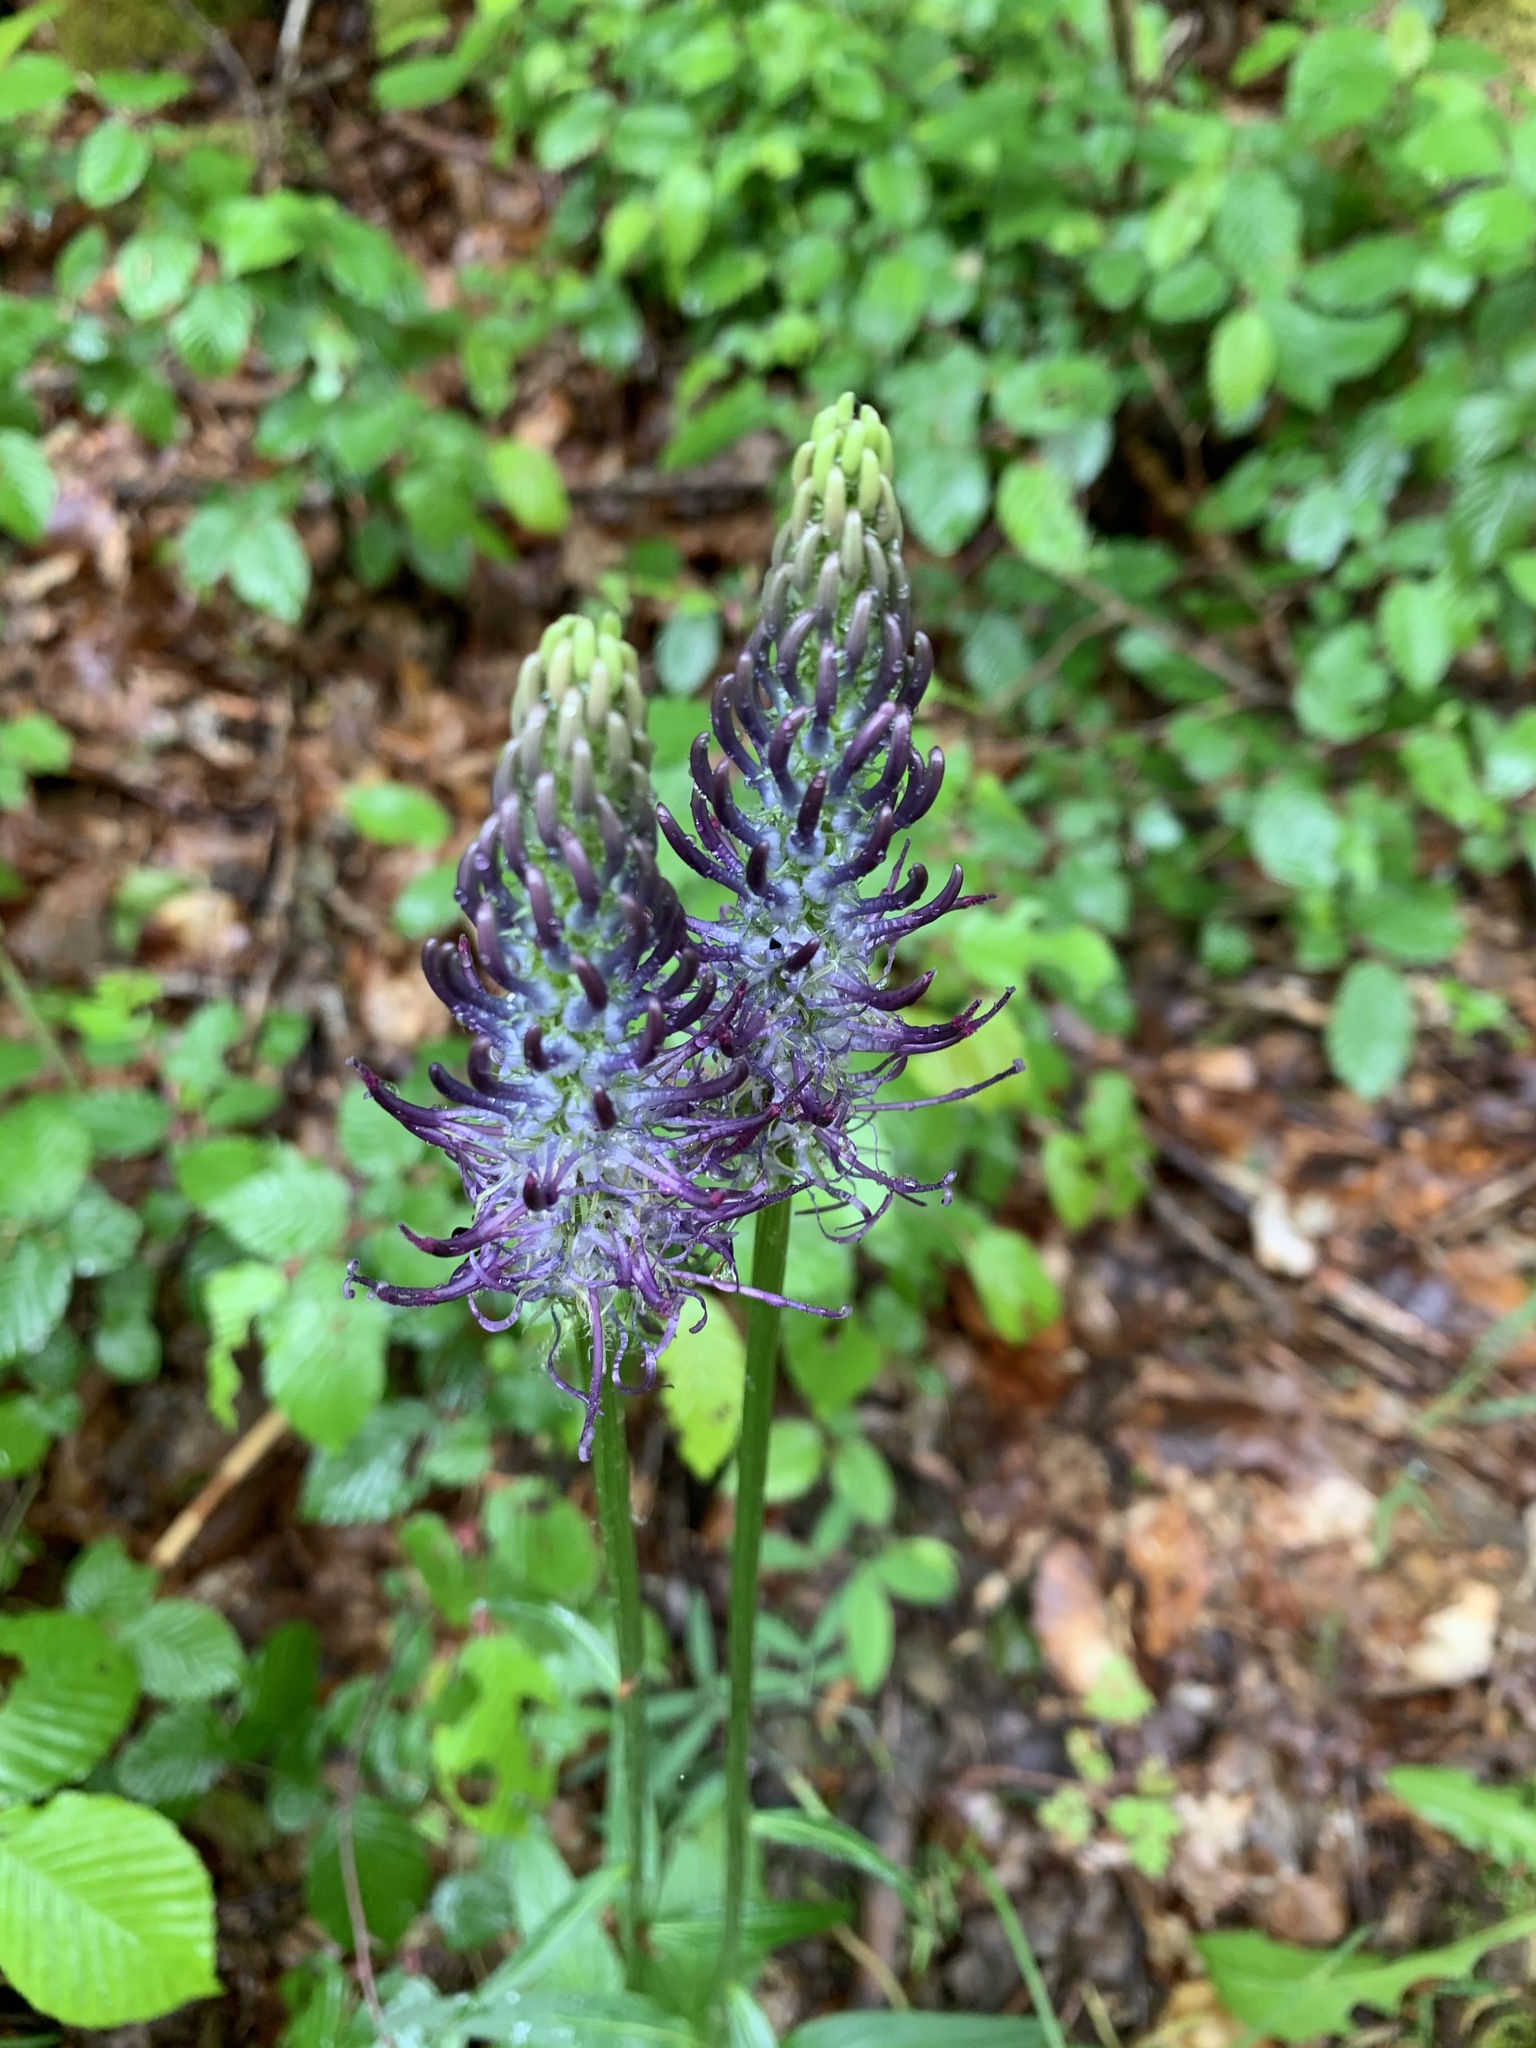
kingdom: Plantae
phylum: Tracheophyta
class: Magnoliopsida
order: Asterales
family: Campanulaceae
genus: Phyteuma
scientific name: Phyteuma nigrum
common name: Black rampion
